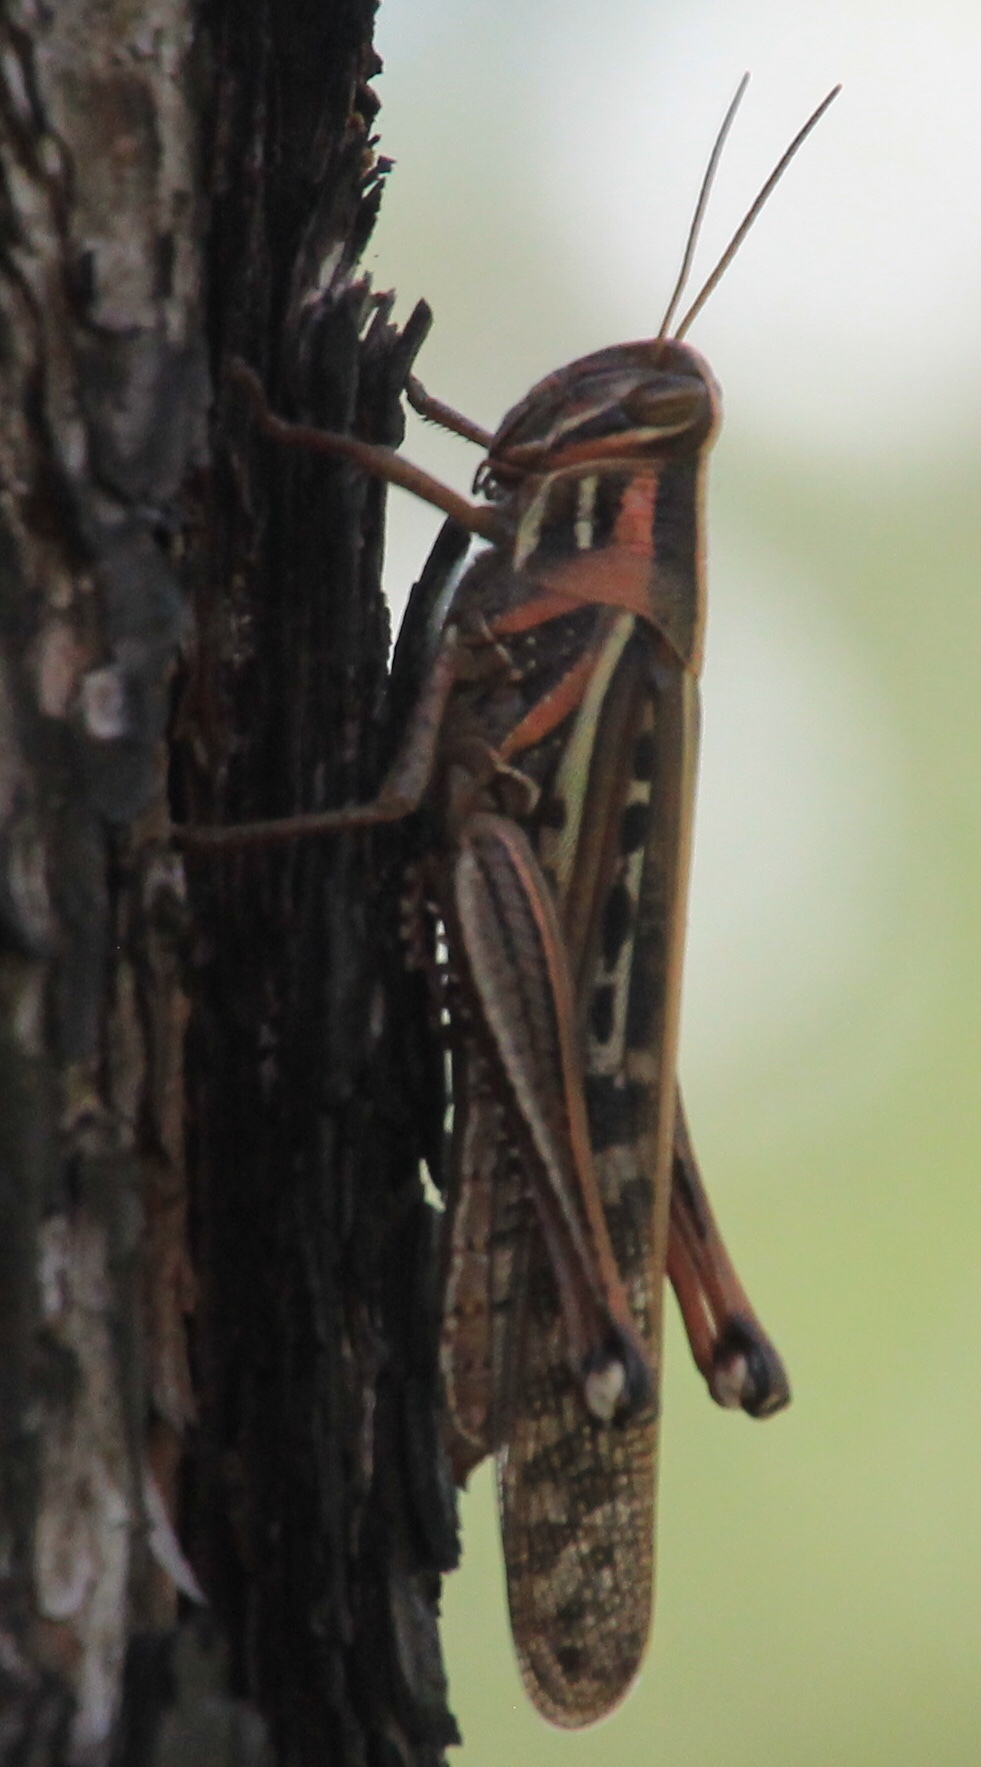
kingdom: Animalia
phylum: Arthropoda
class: Insecta
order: Orthoptera
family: Acrididae
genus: Schistocerca
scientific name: Schistocerca americana
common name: American bird locust
